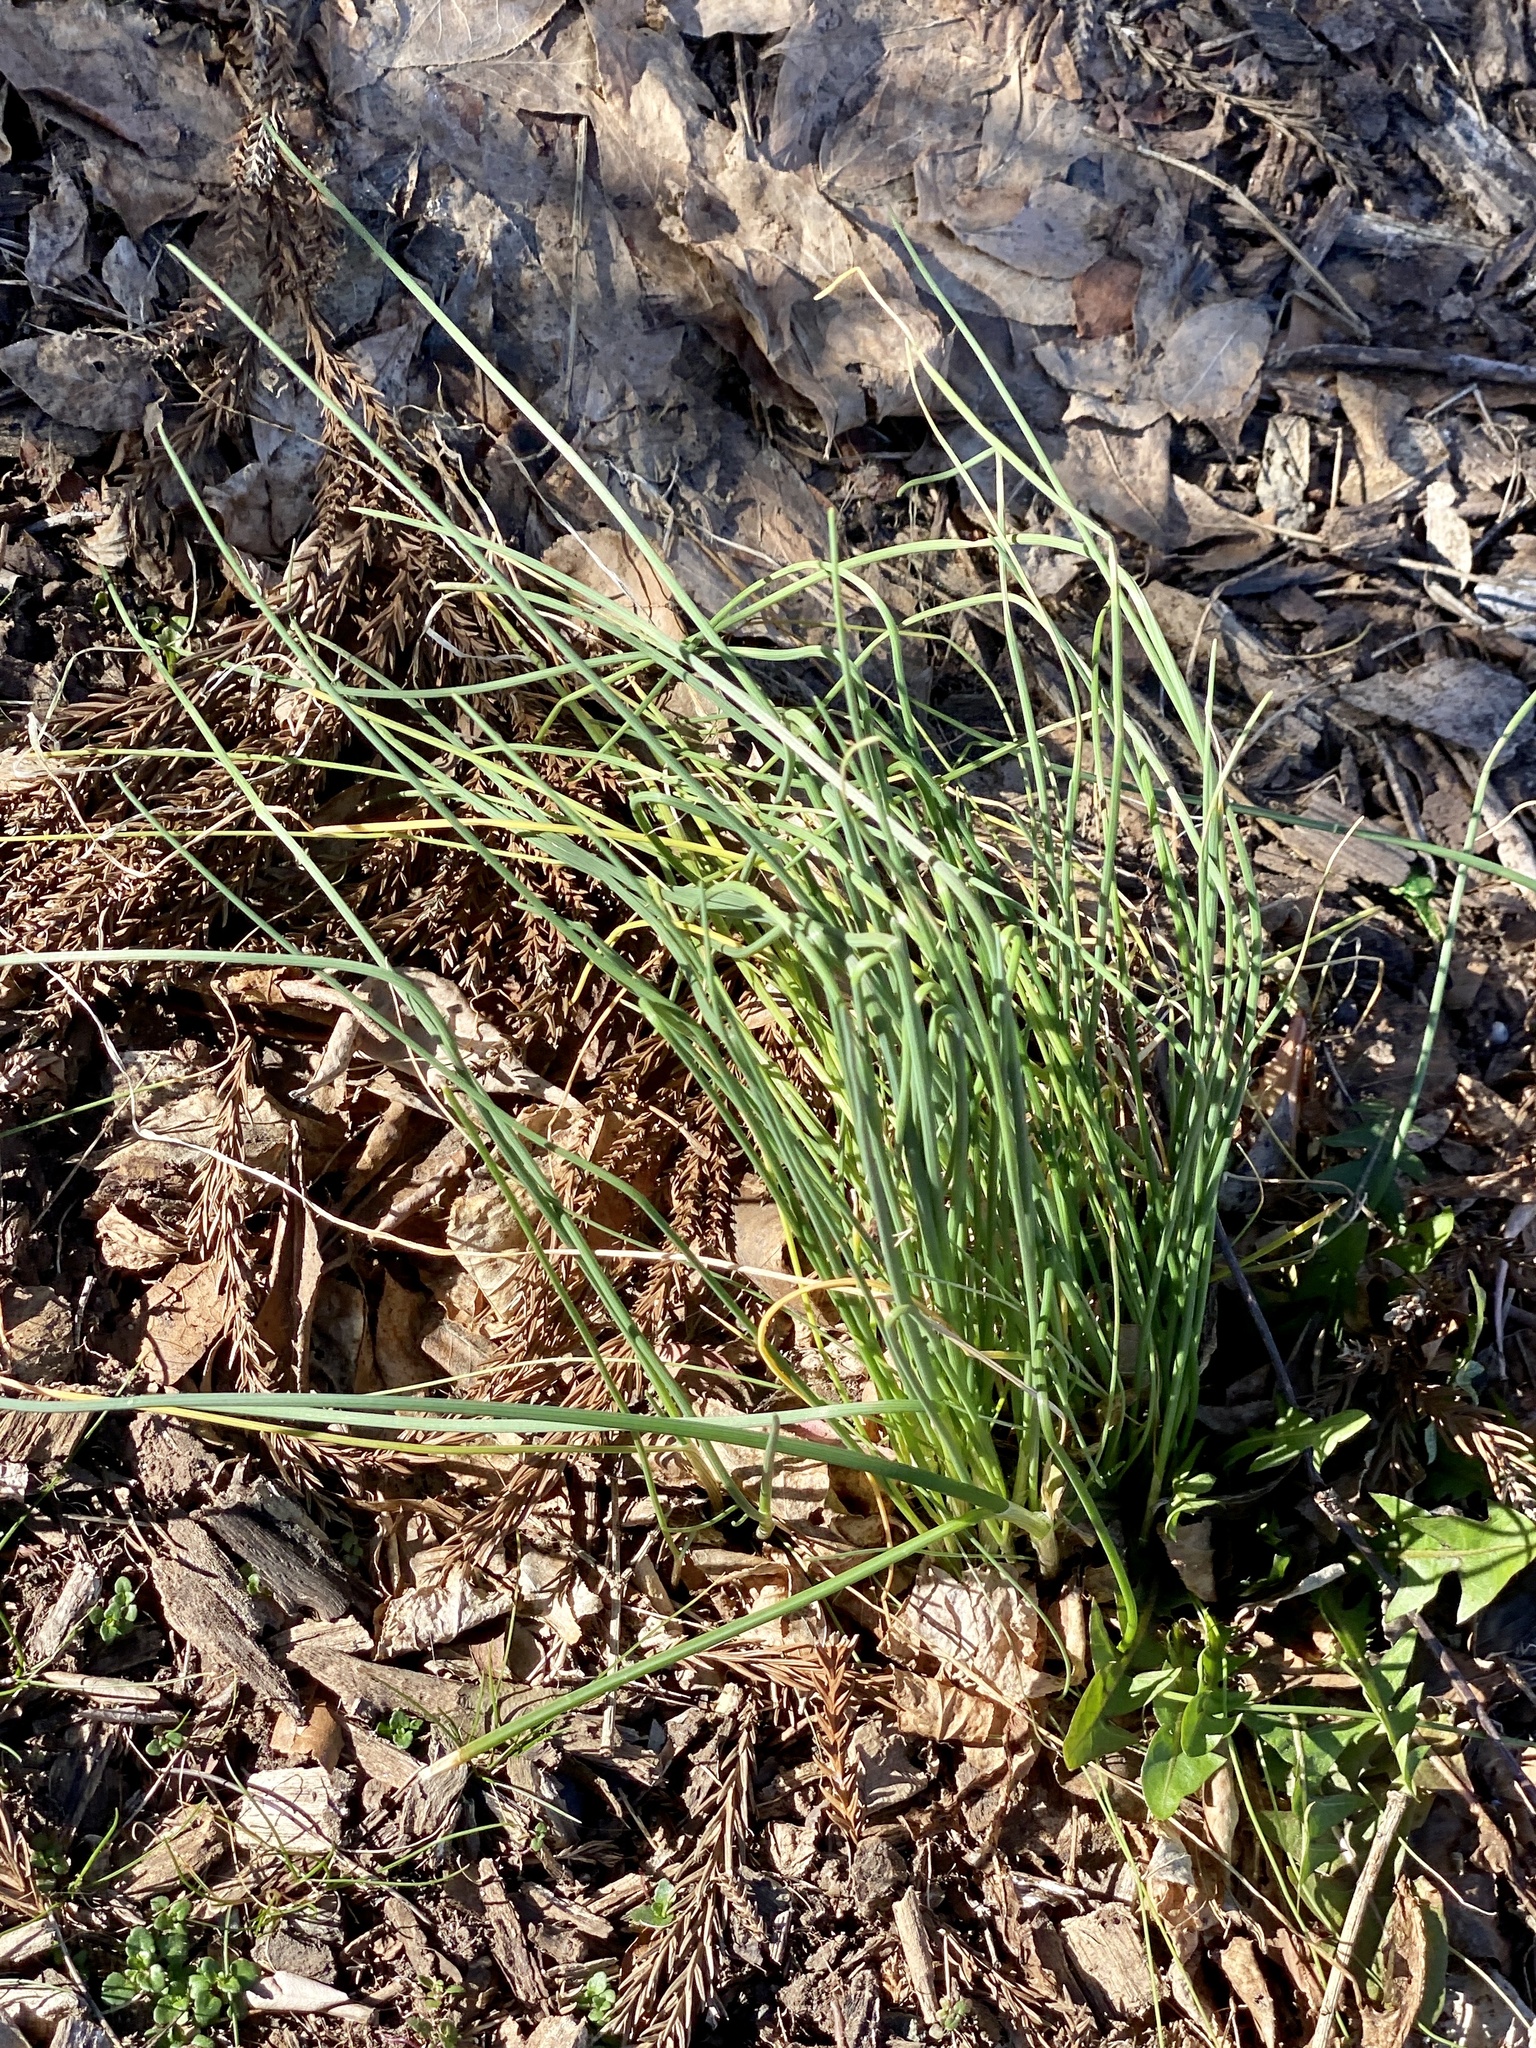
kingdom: Plantae
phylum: Tracheophyta
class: Liliopsida
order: Asparagales
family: Amaryllidaceae
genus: Allium
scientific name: Allium vineale
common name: Crow garlic
